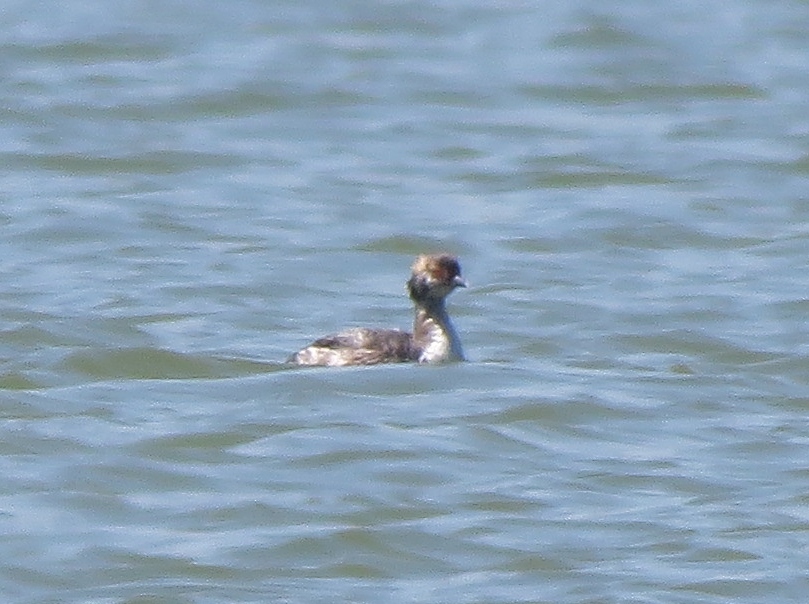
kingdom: Animalia
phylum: Chordata
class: Aves
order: Podicipediformes
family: Podicipedidae
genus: Podiceps
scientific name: Podiceps auritus
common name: Horned grebe
